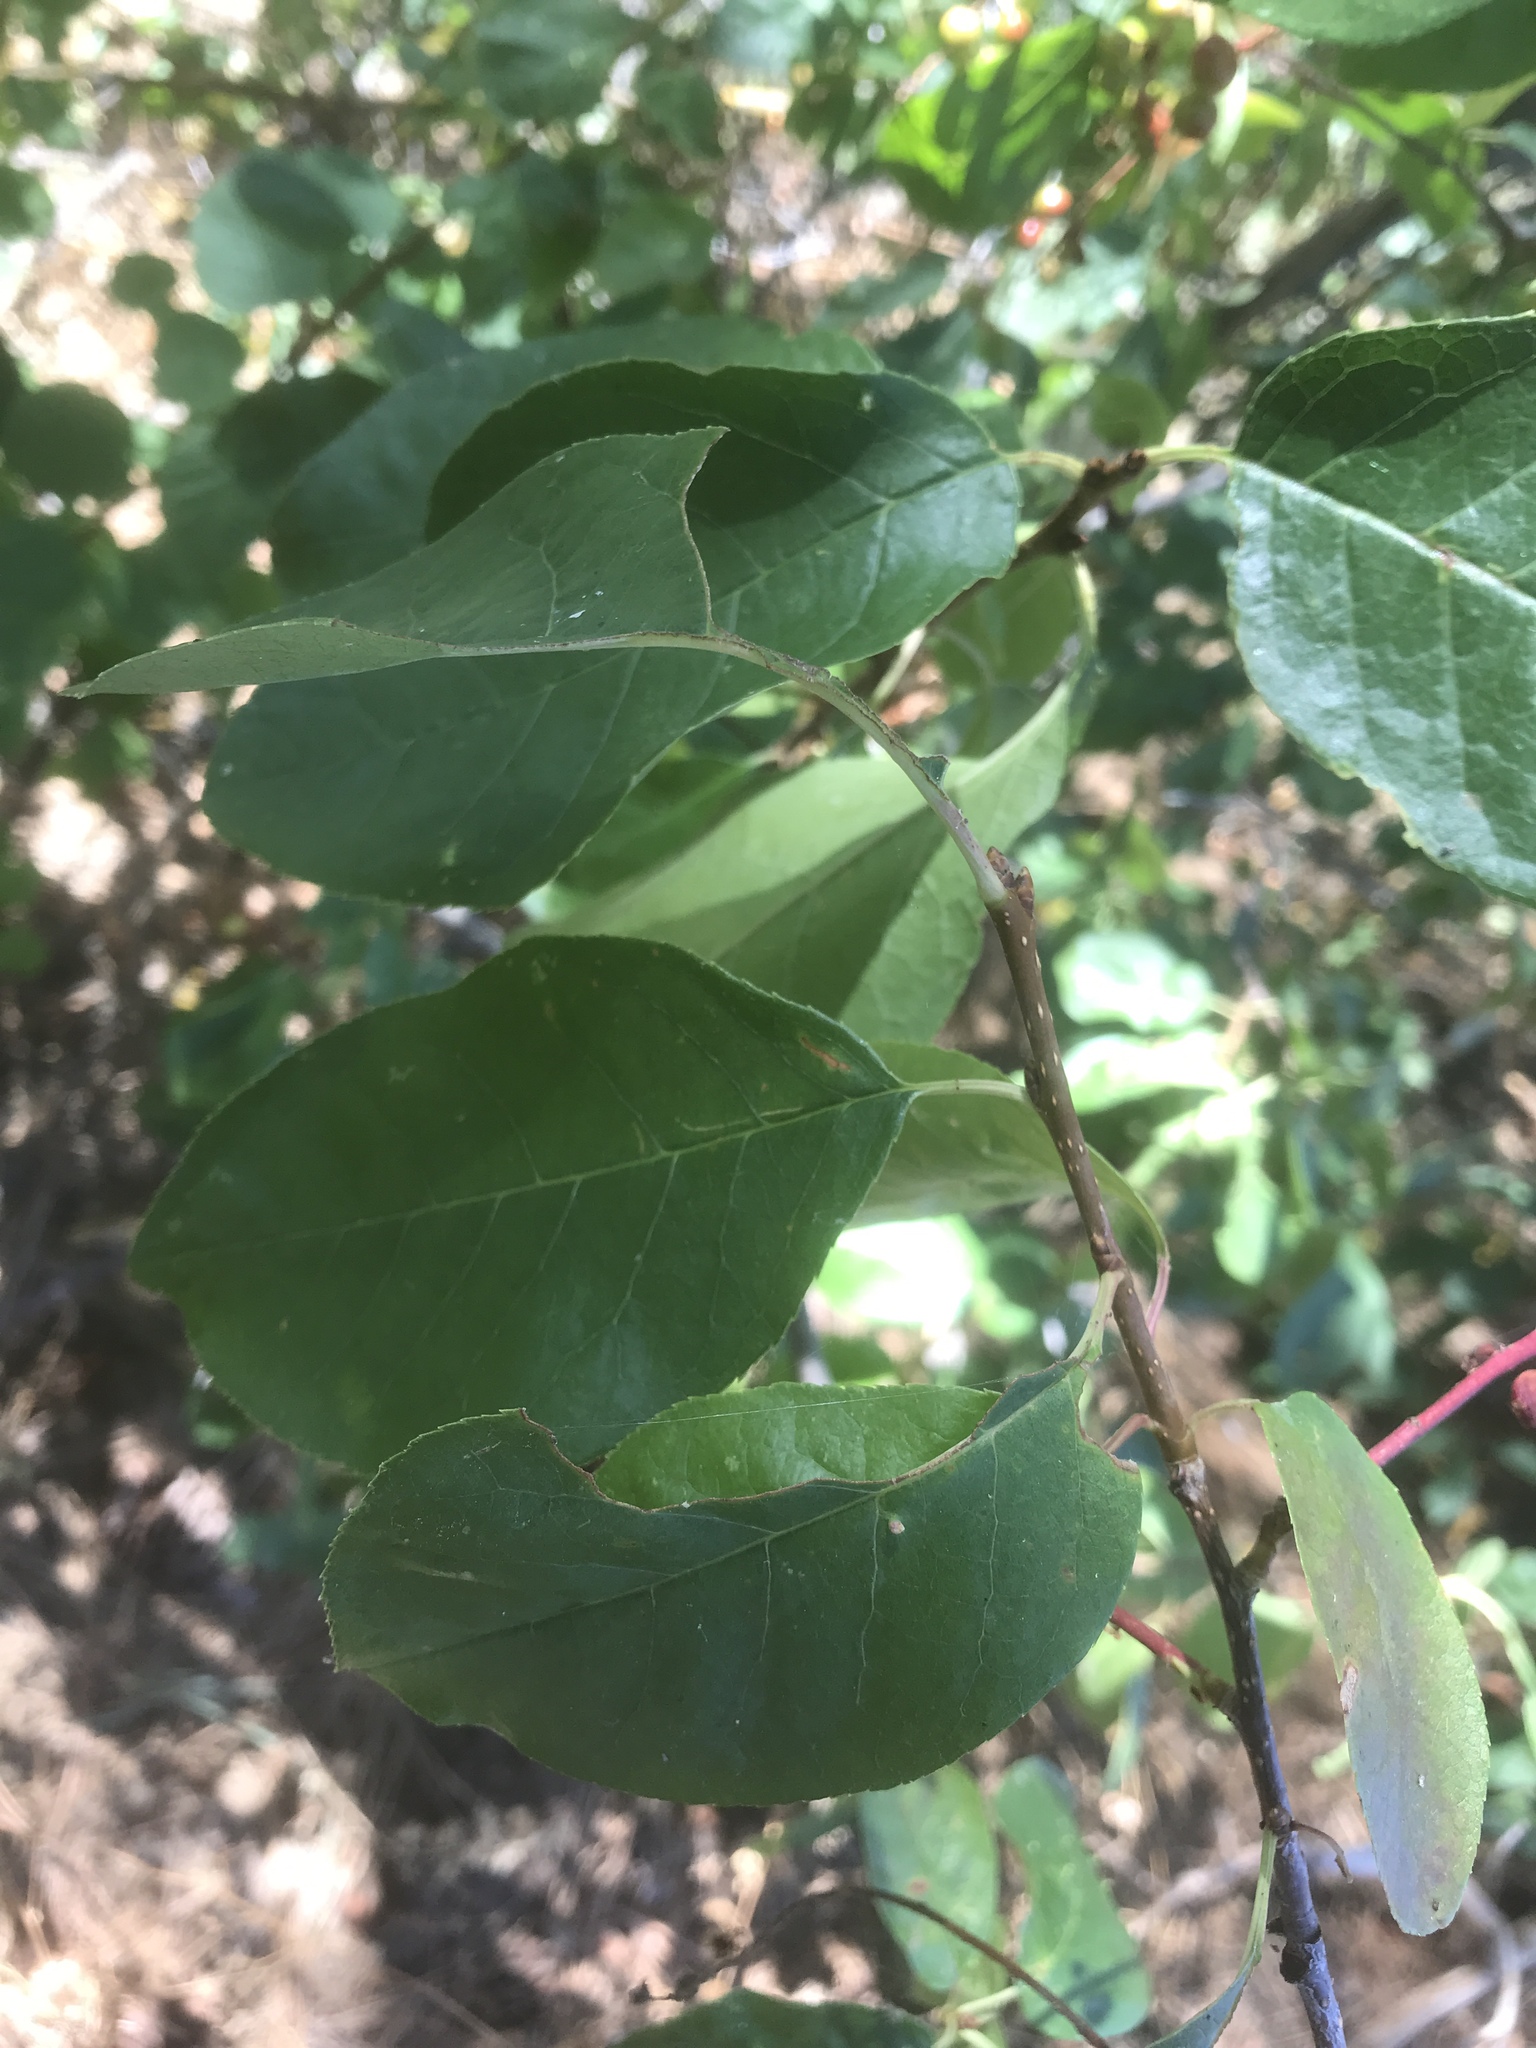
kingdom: Plantae
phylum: Tracheophyta
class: Magnoliopsida
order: Rosales
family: Rosaceae
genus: Prunus
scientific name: Prunus virginiana
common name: Chokecherry
